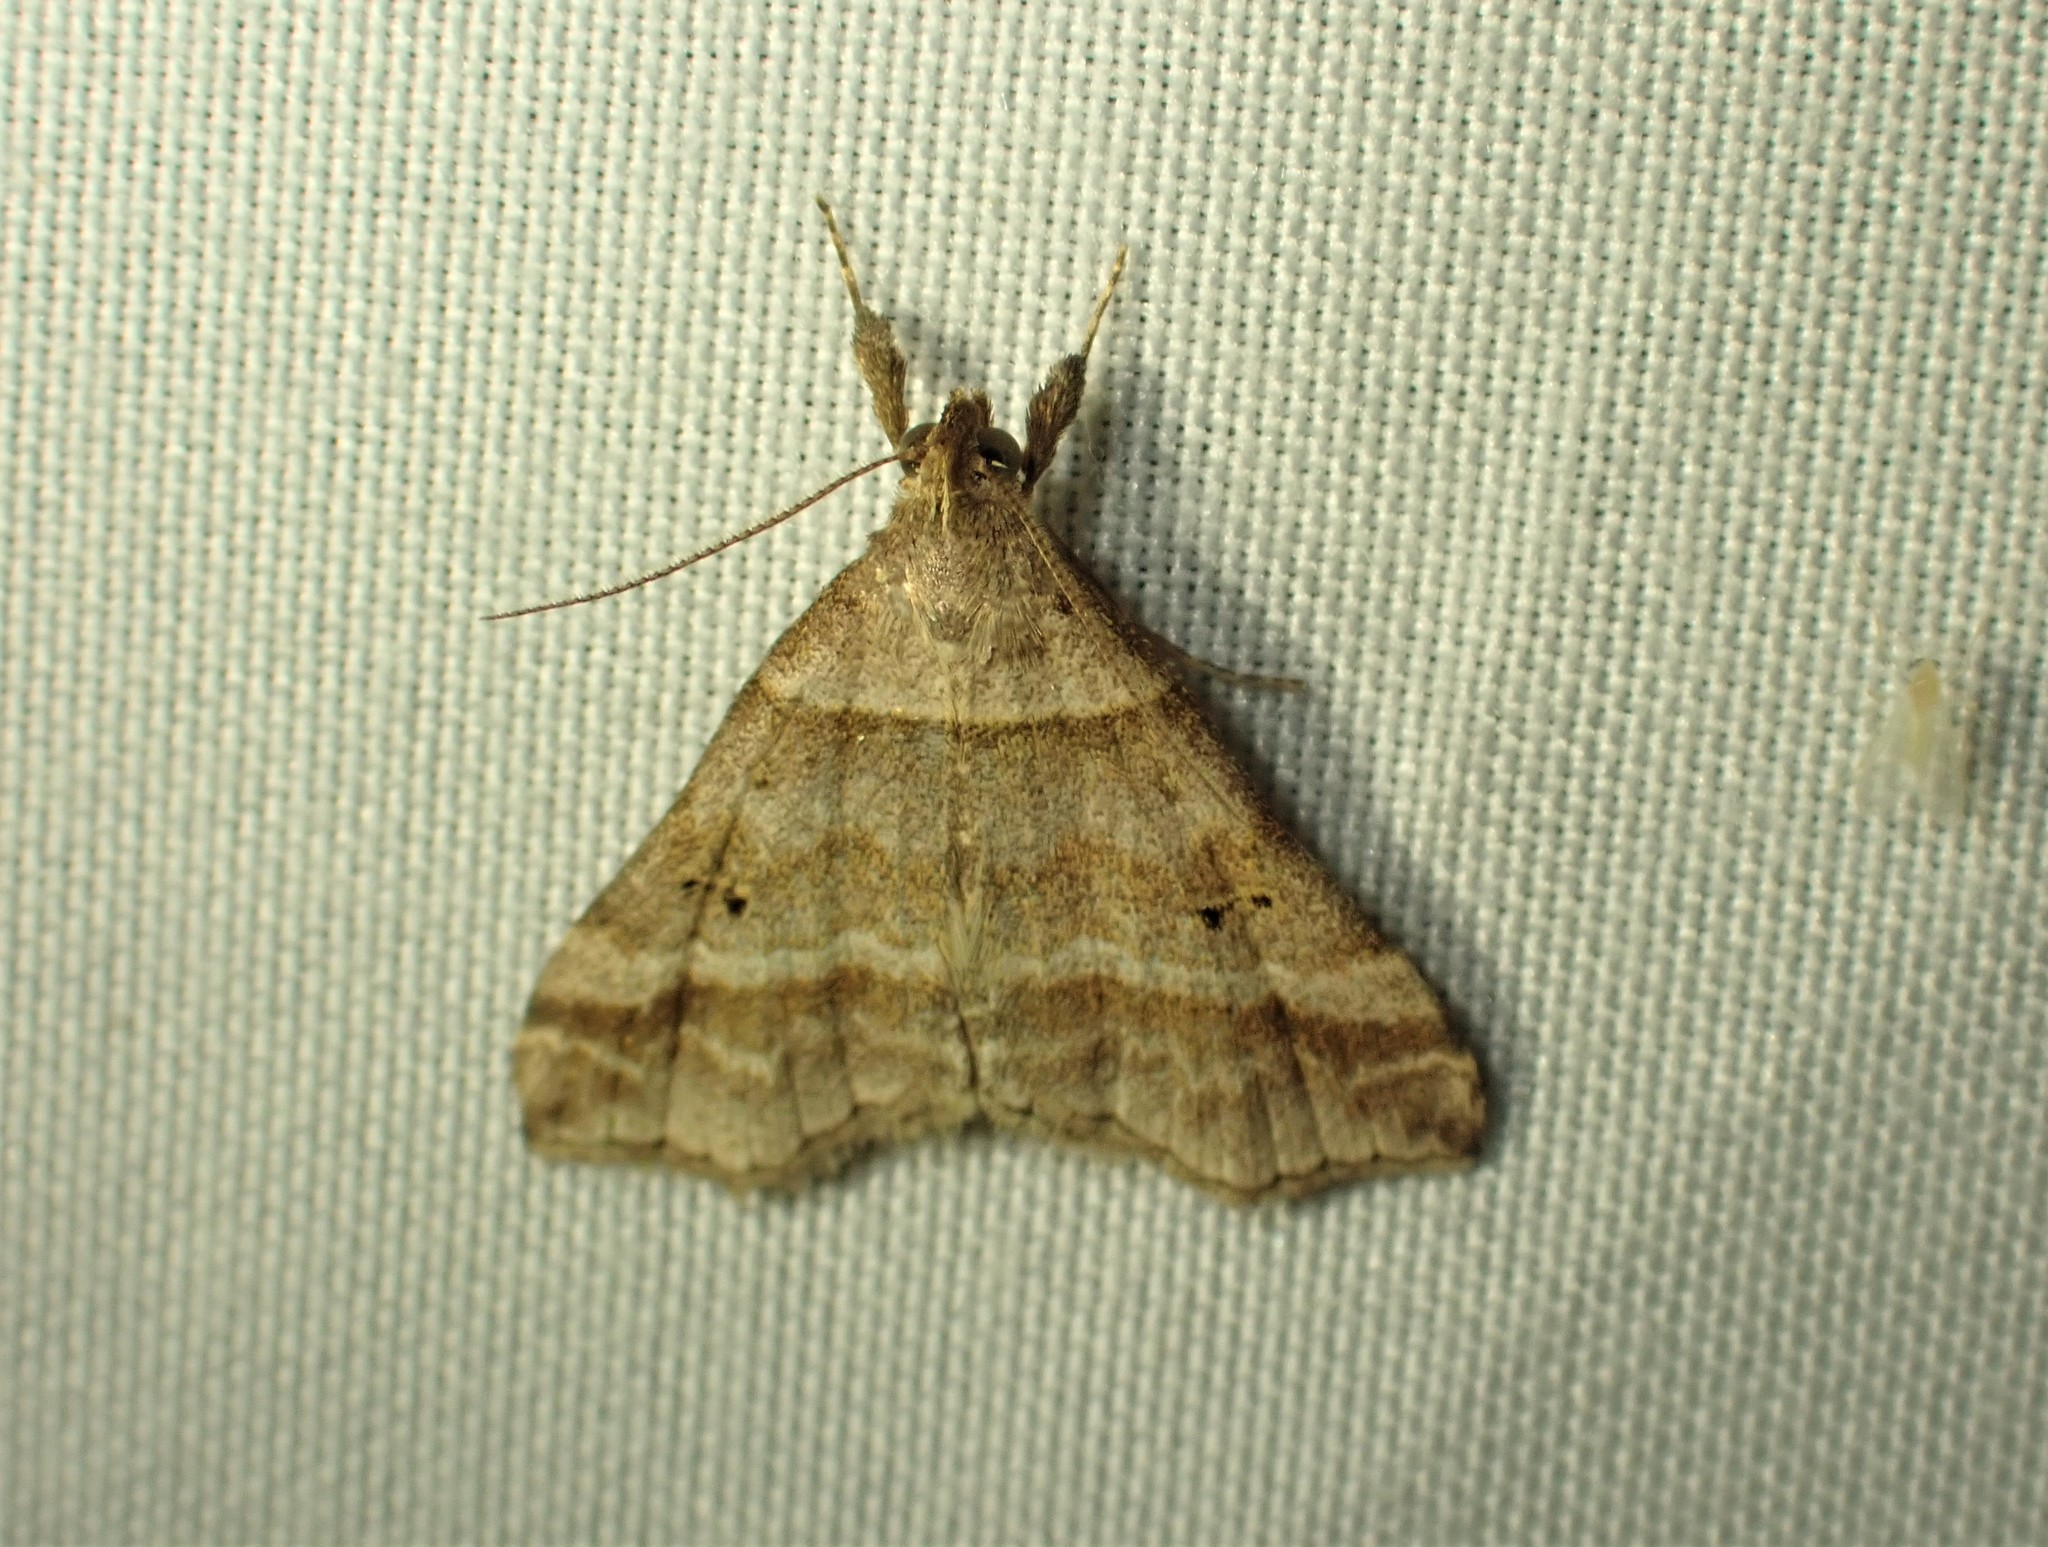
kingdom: Animalia
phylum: Arthropoda
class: Insecta
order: Lepidoptera
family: Erebidae
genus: Phaeolita
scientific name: Phaeolita pyramusalis
